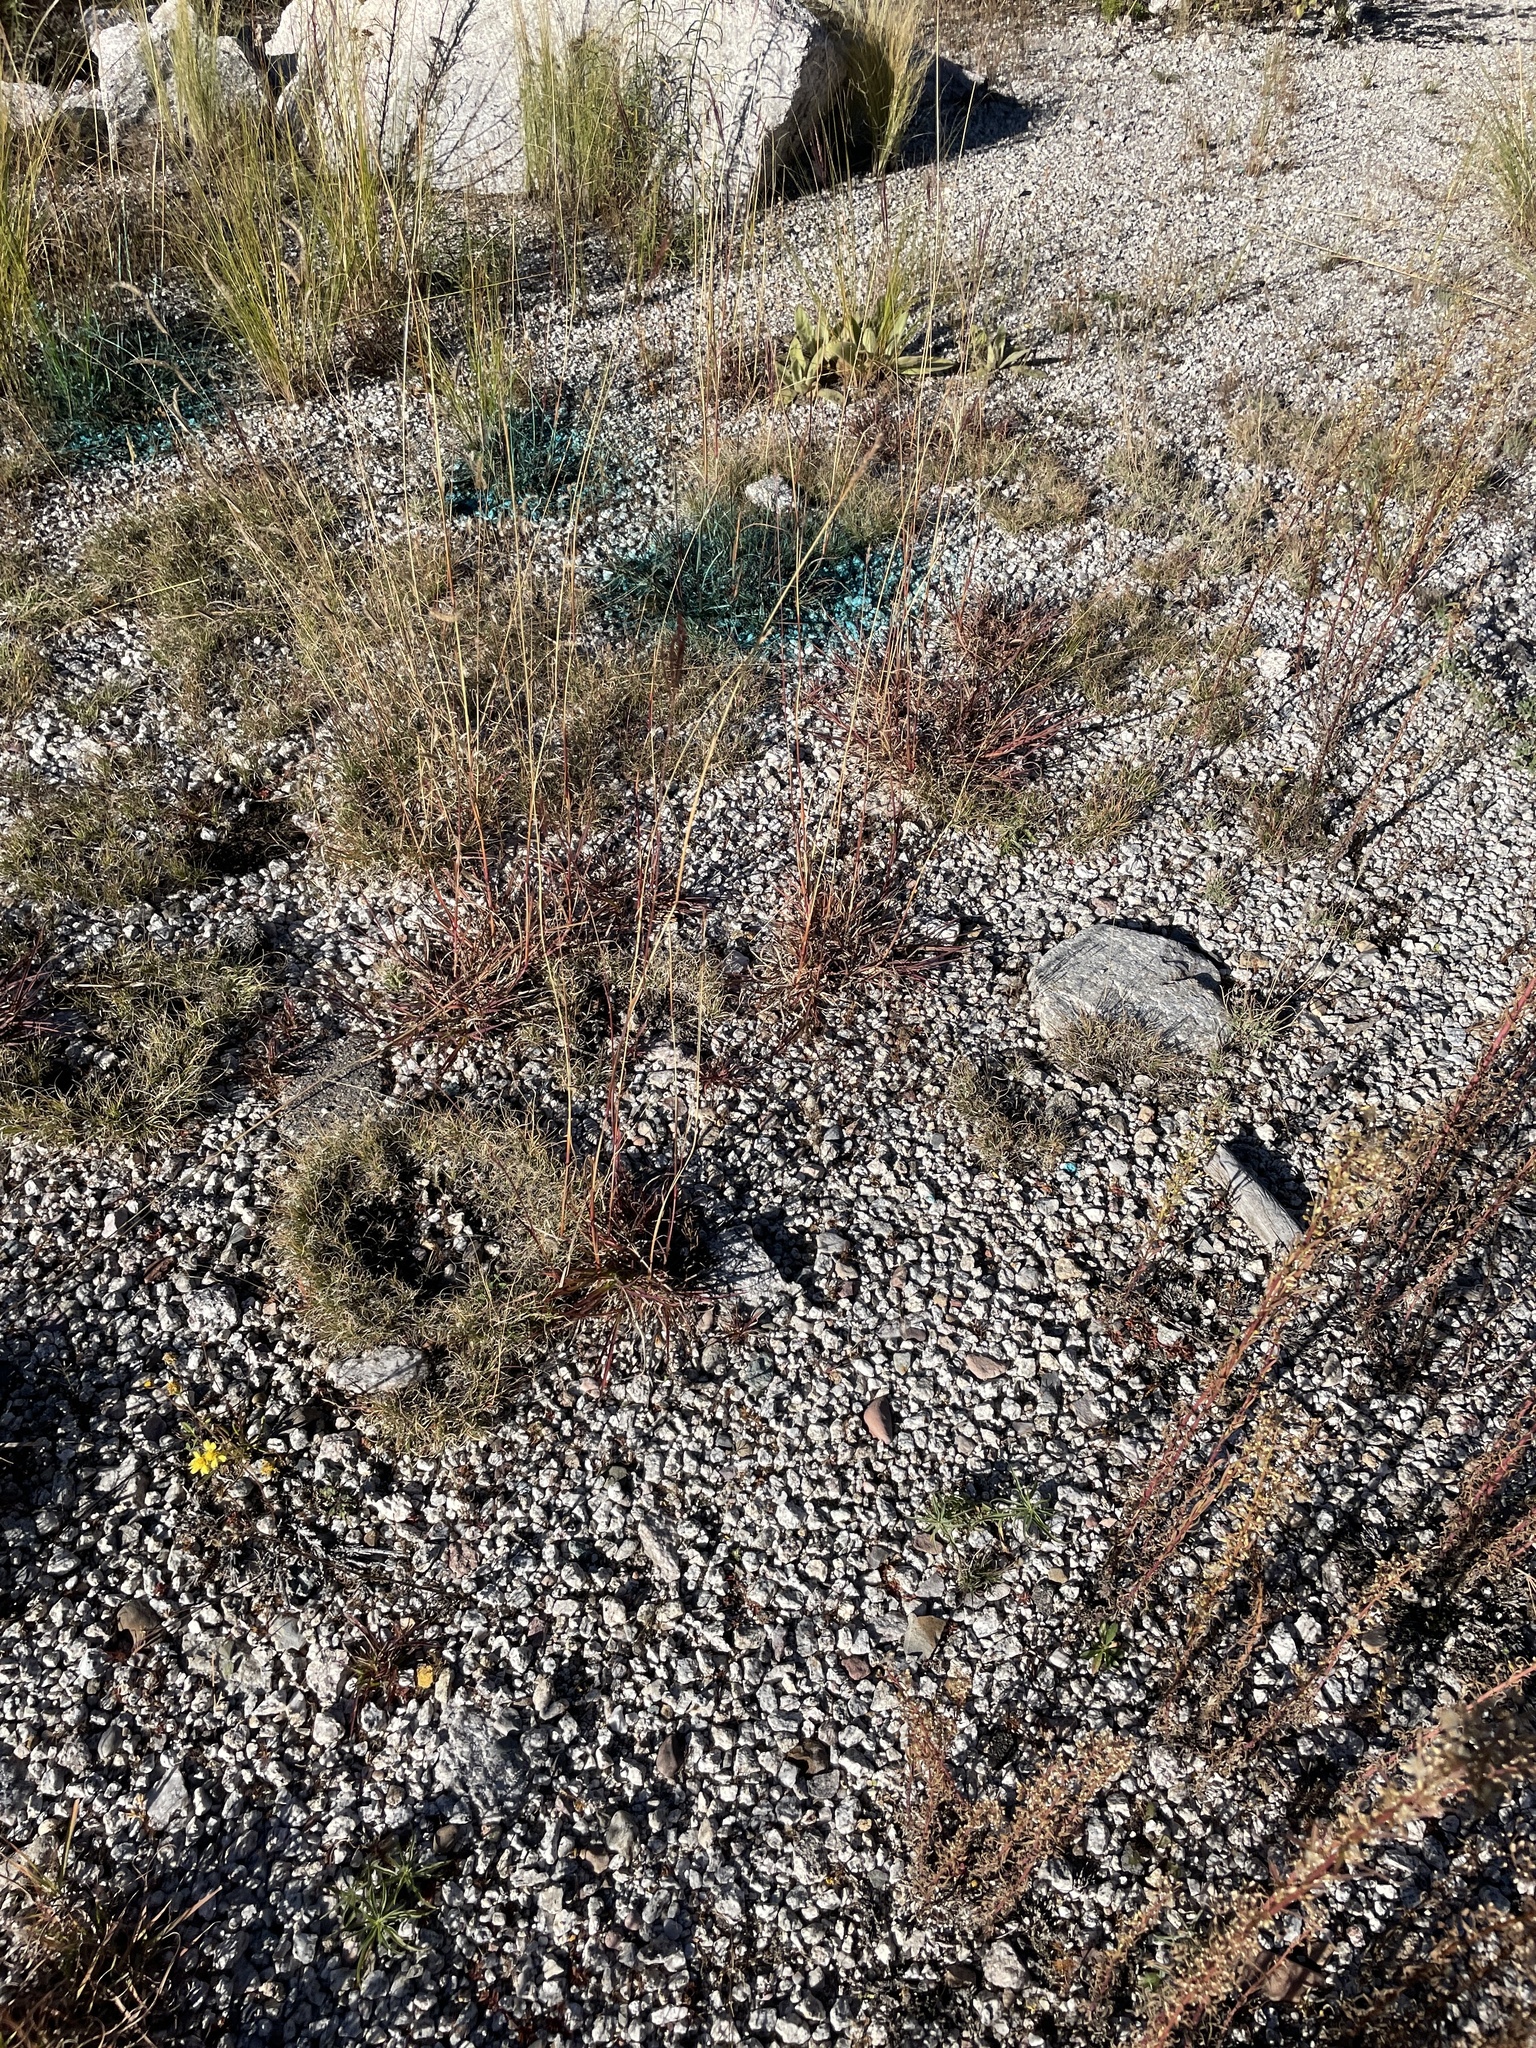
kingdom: Plantae
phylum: Tracheophyta
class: Liliopsida
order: Poales
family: Poaceae
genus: Bothriochloa
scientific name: Bothriochloa ischaemum
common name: Yellow bluestem
